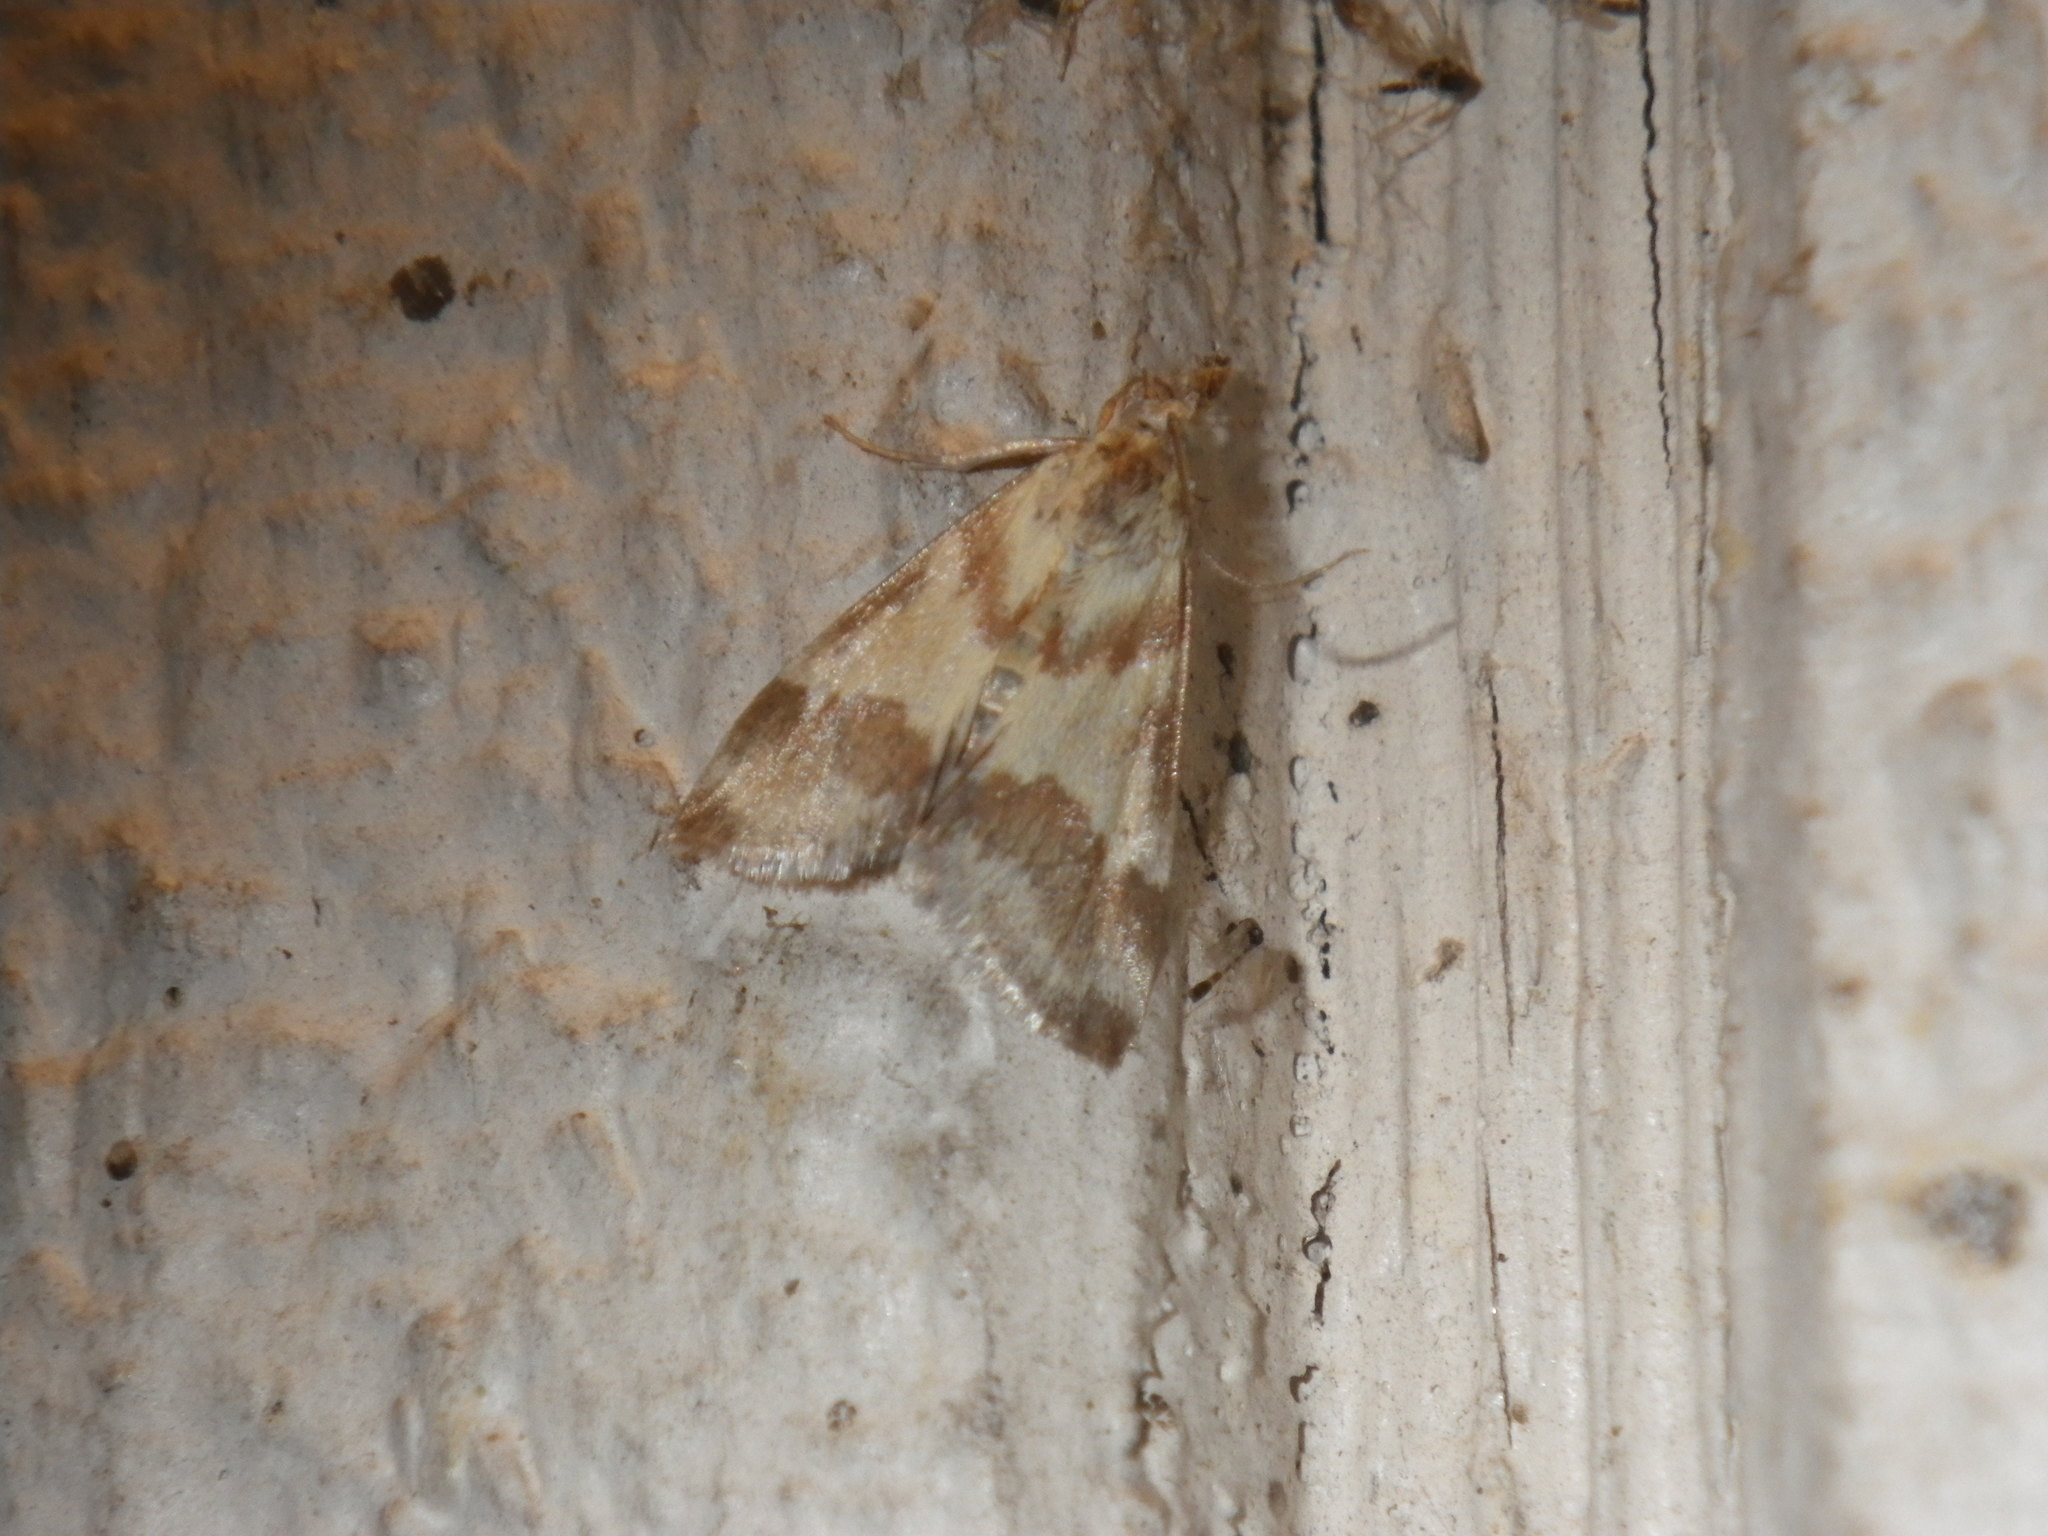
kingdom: Animalia
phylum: Arthropoda
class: Insecta
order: Lepidoptera
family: Crambidae
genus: Noctuelia
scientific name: Noctuelia Mimoschinia rufofascialis
